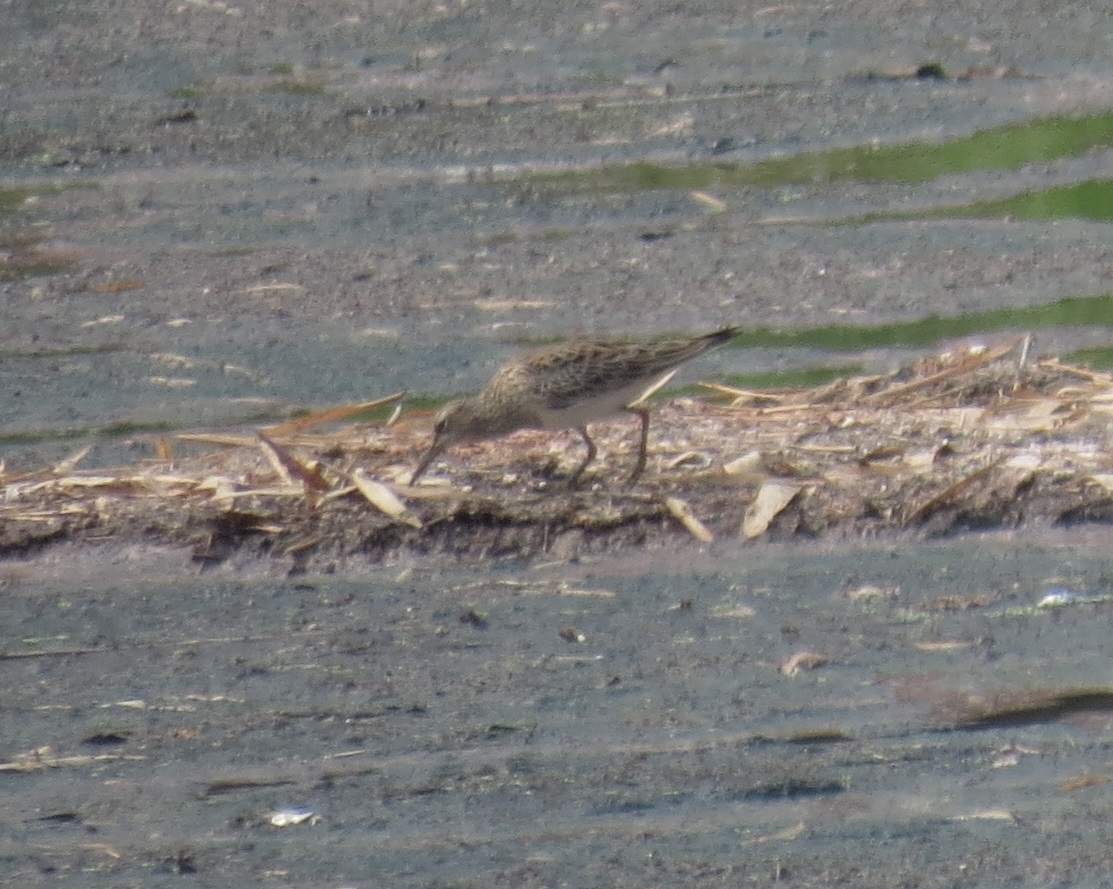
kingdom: Animalia
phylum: Chordata
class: Aves
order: Charadriiformes
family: Scolopacidae
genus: Calidris
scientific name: Calidris melanotos
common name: Pectoral sandpiper
